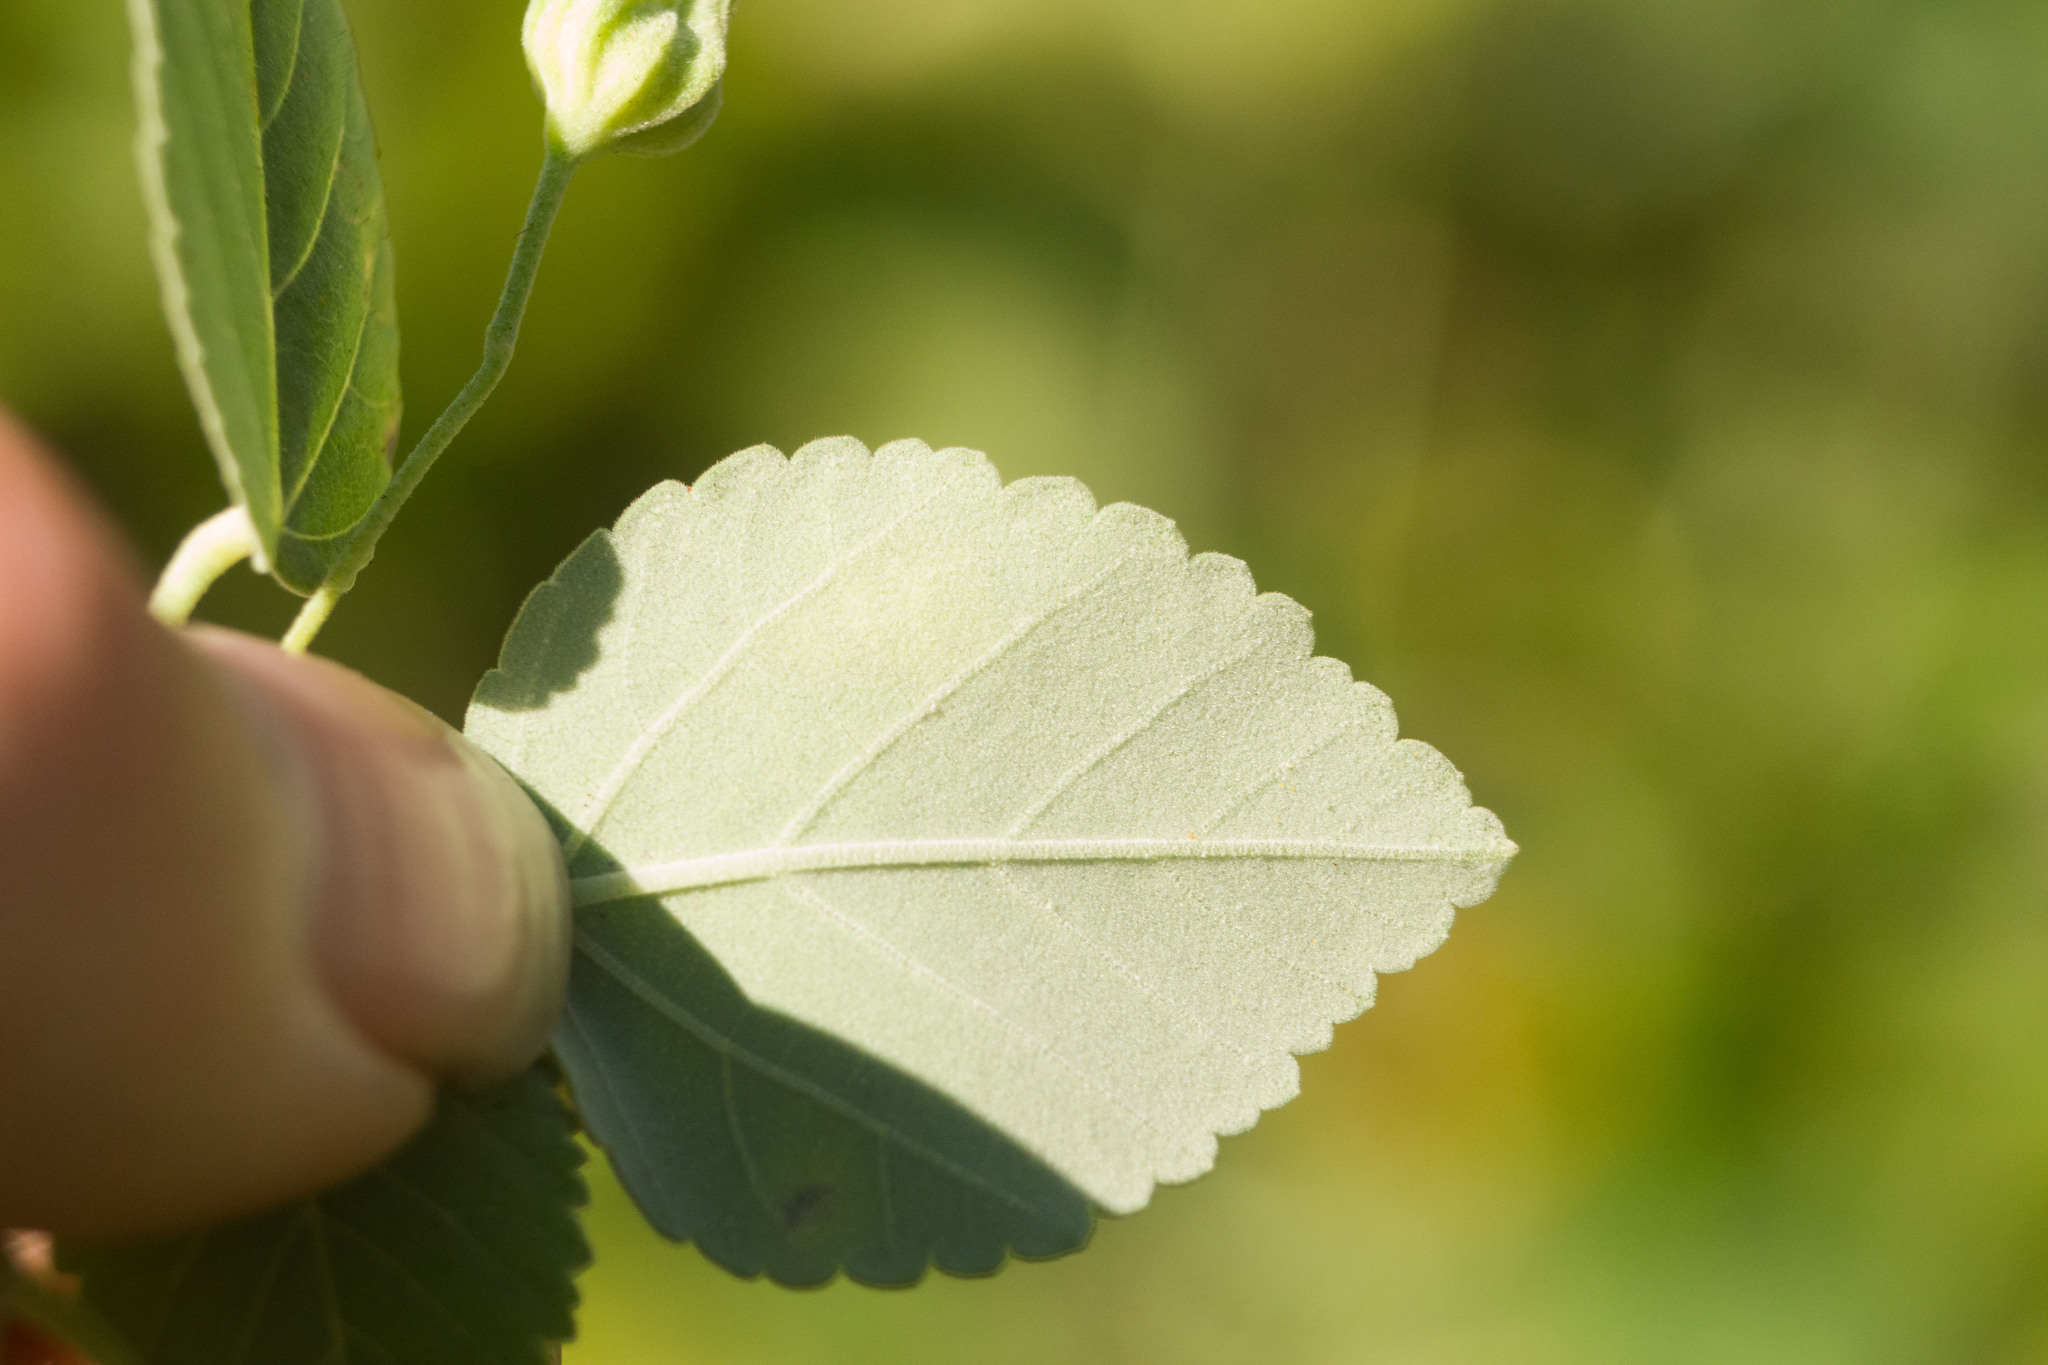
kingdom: Animalia
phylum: Arthropoda
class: Insecta
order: Lepidoptera
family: Gracillariidae
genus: Philodoria
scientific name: Philodoria marginestrigata
